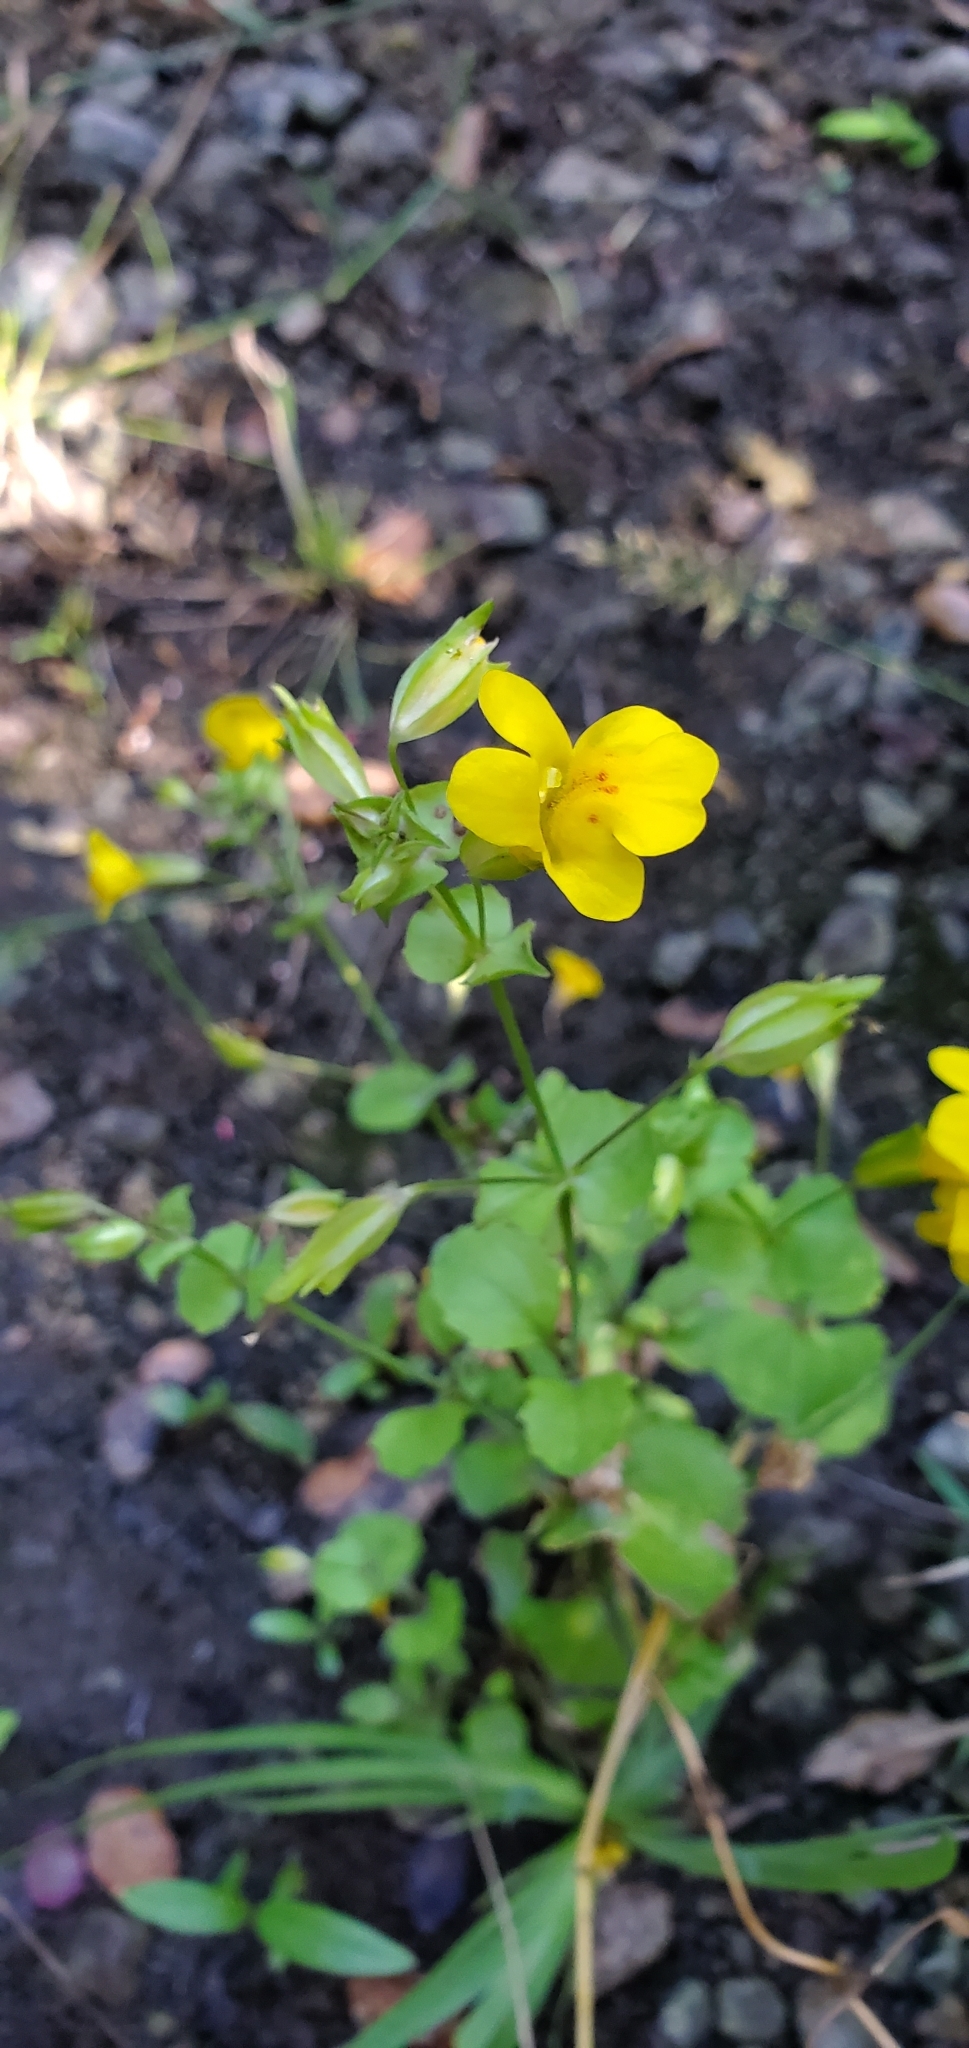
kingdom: Plantae
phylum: Tracheophyta
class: Magnoliopsida
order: Lamiales
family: Phrymaceae
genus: Erythranthe
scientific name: Erythranthe guttata
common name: Monkeyflower
